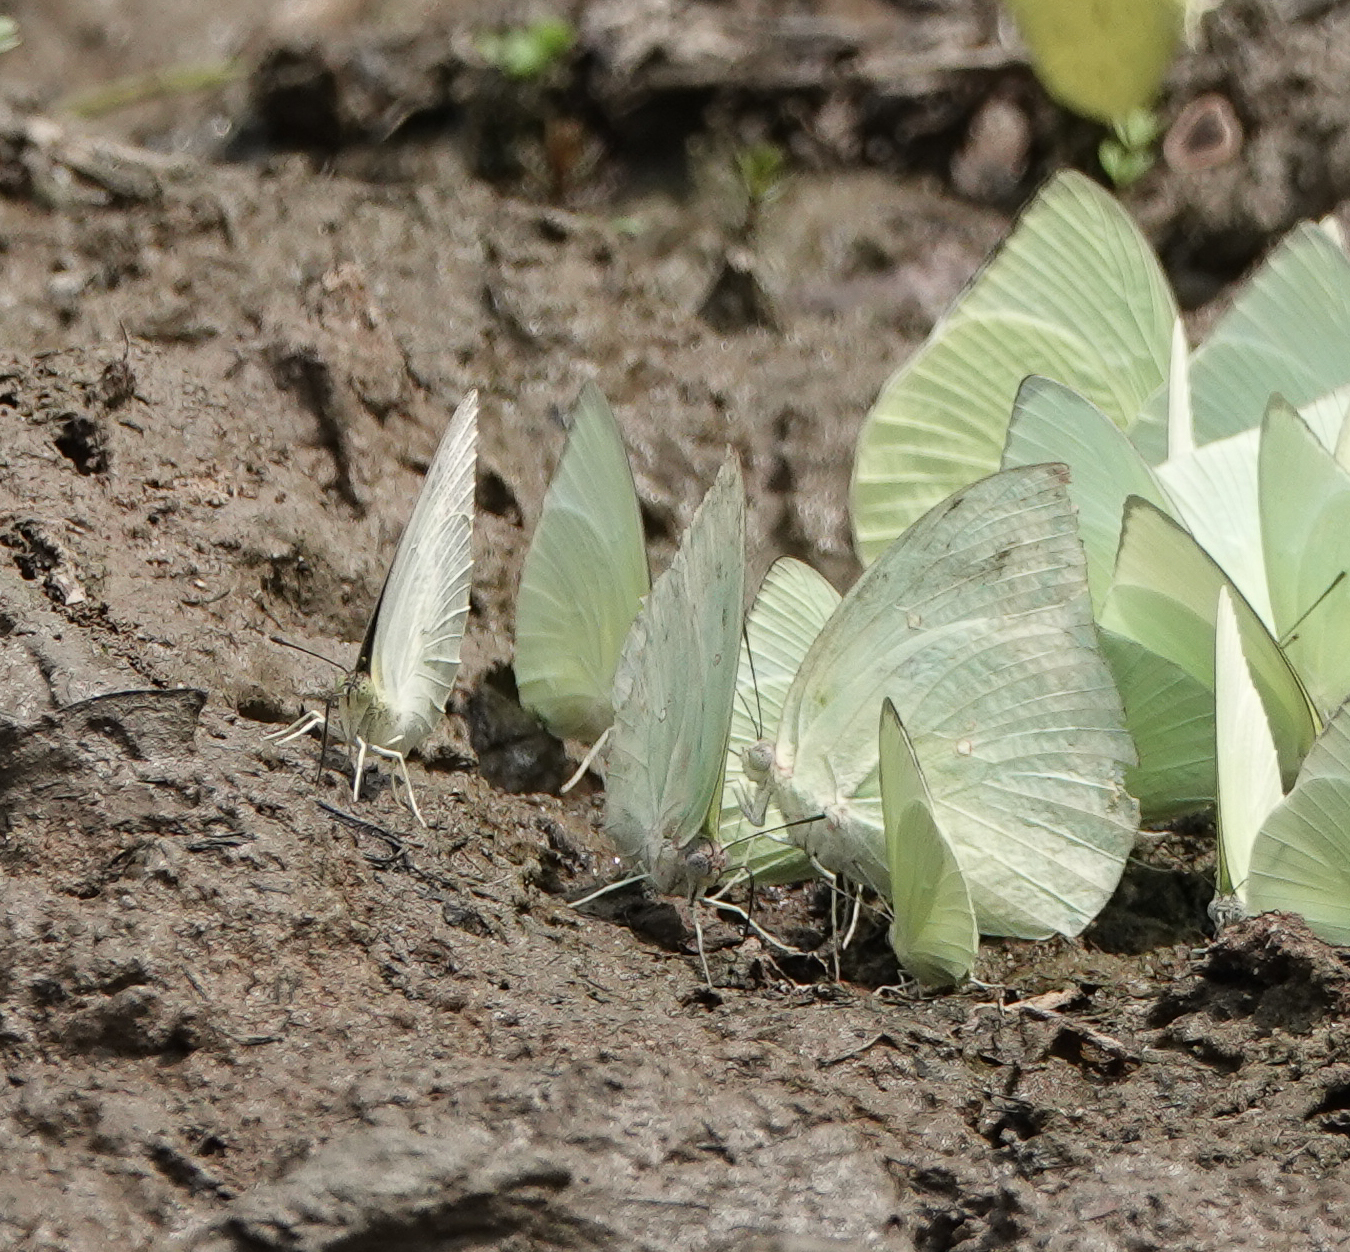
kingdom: Animalia
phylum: Arthropoda
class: Insecta
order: Lepidoptera
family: Pieridae
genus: Catopsilia
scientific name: Catopsilia pyranthe
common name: Mottled emigrant
